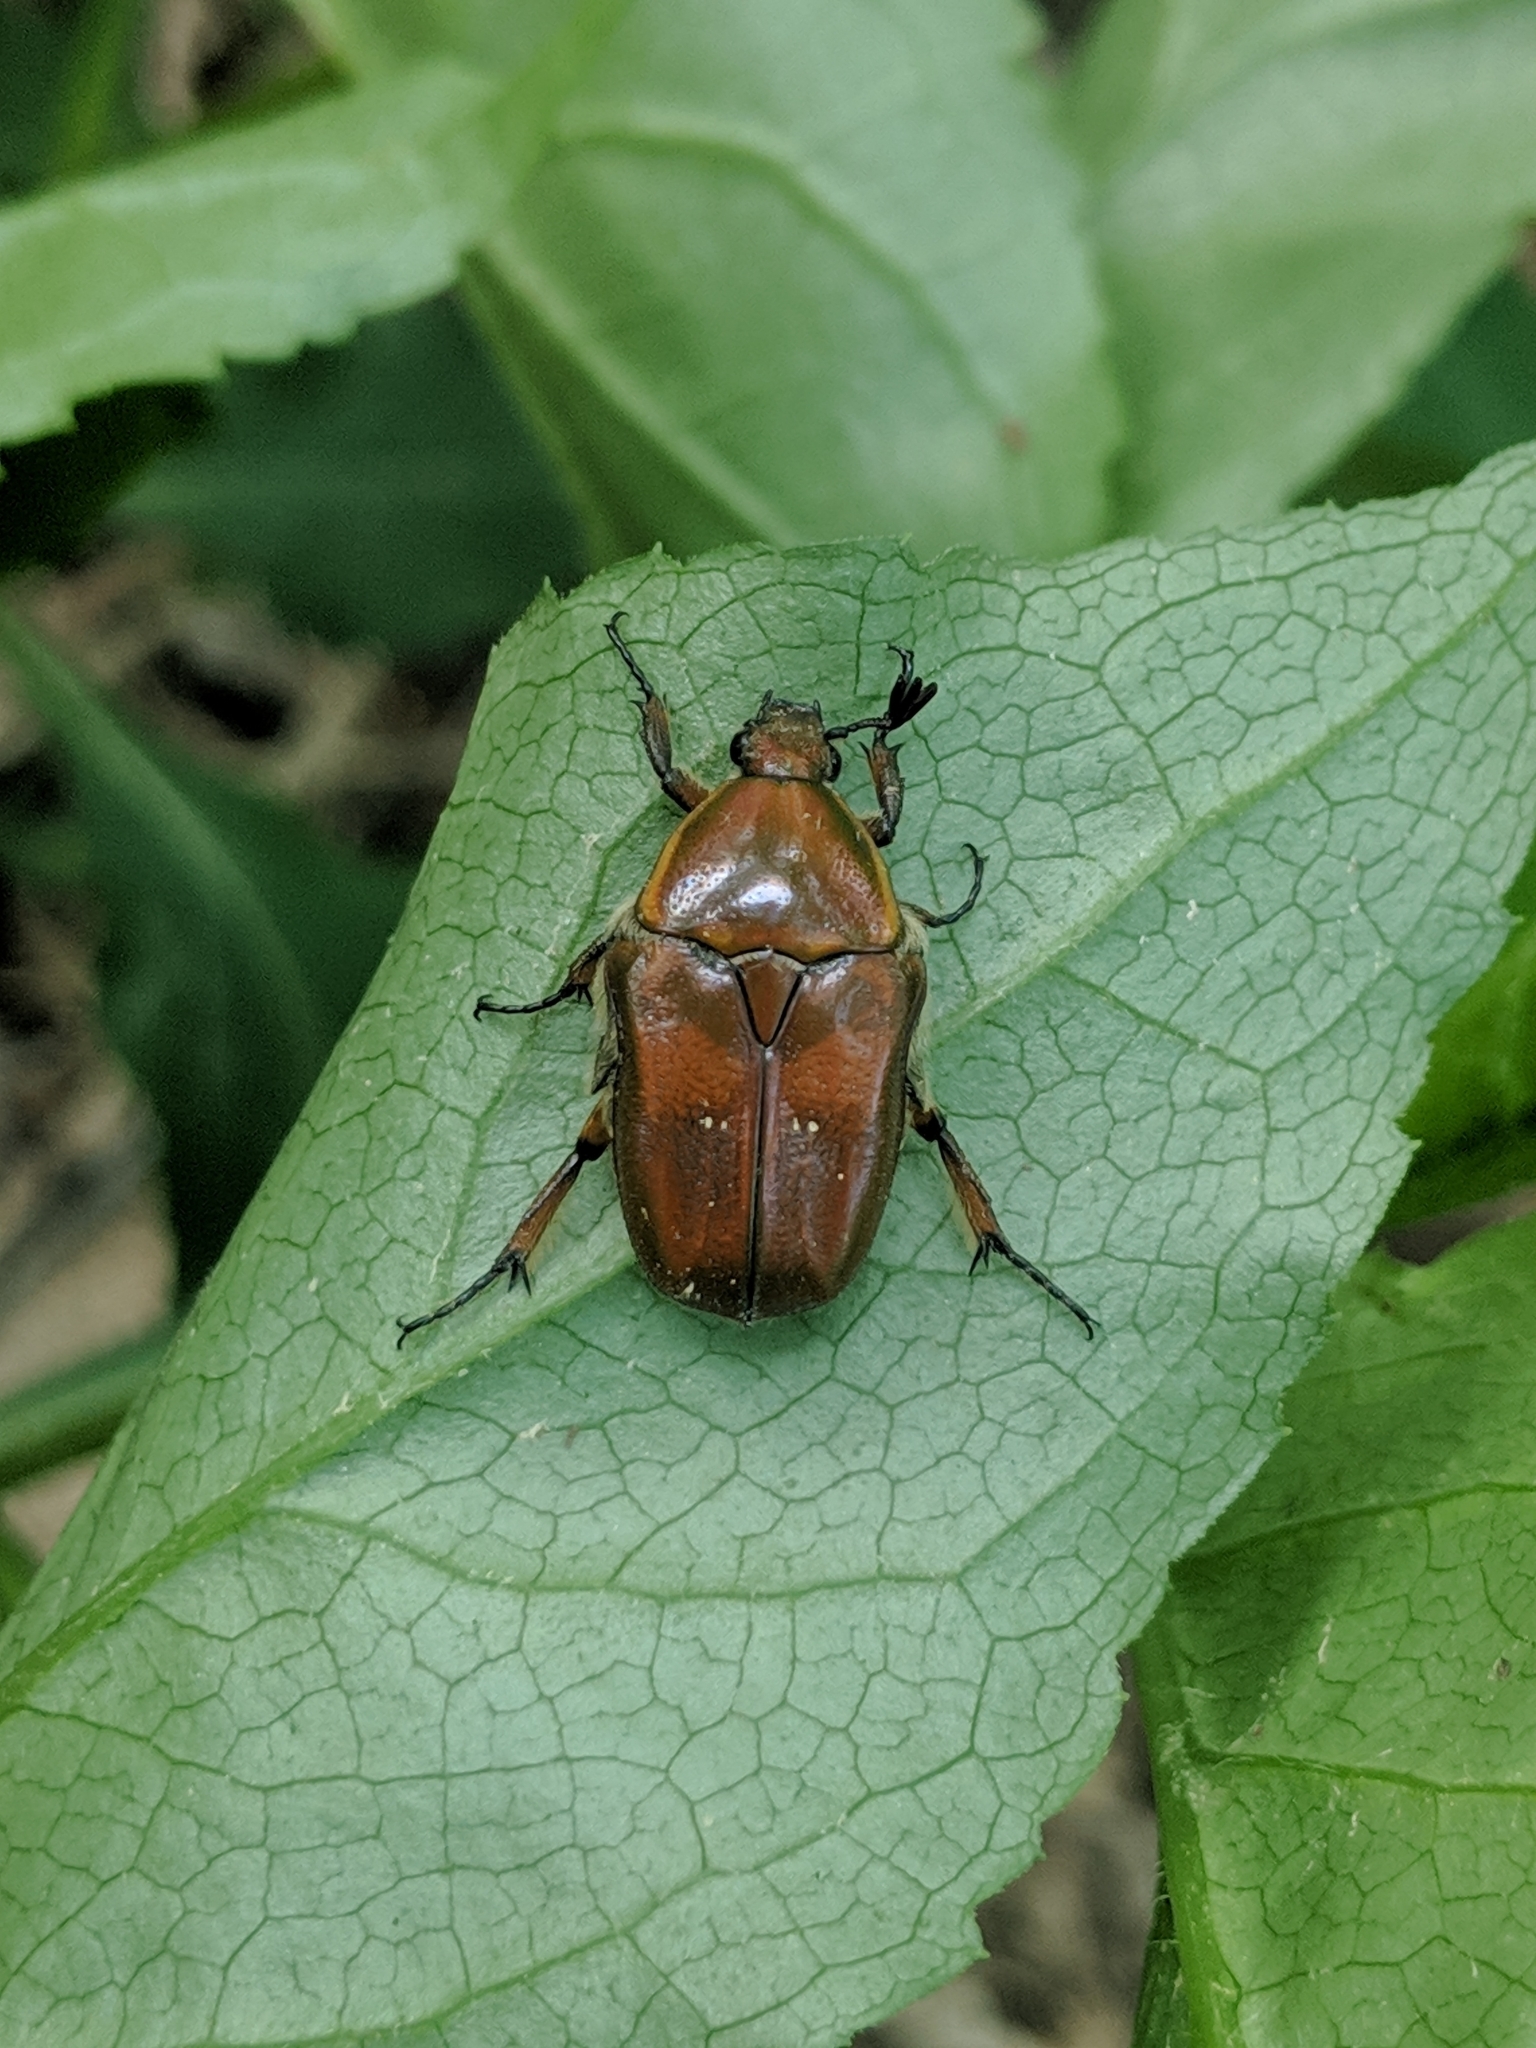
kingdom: Animalia
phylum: Arthropoda
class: Insecta
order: Coleoptera
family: Scarabaeidae
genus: Euphoria
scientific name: Euphoria fulgida
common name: Emerald euphoria
